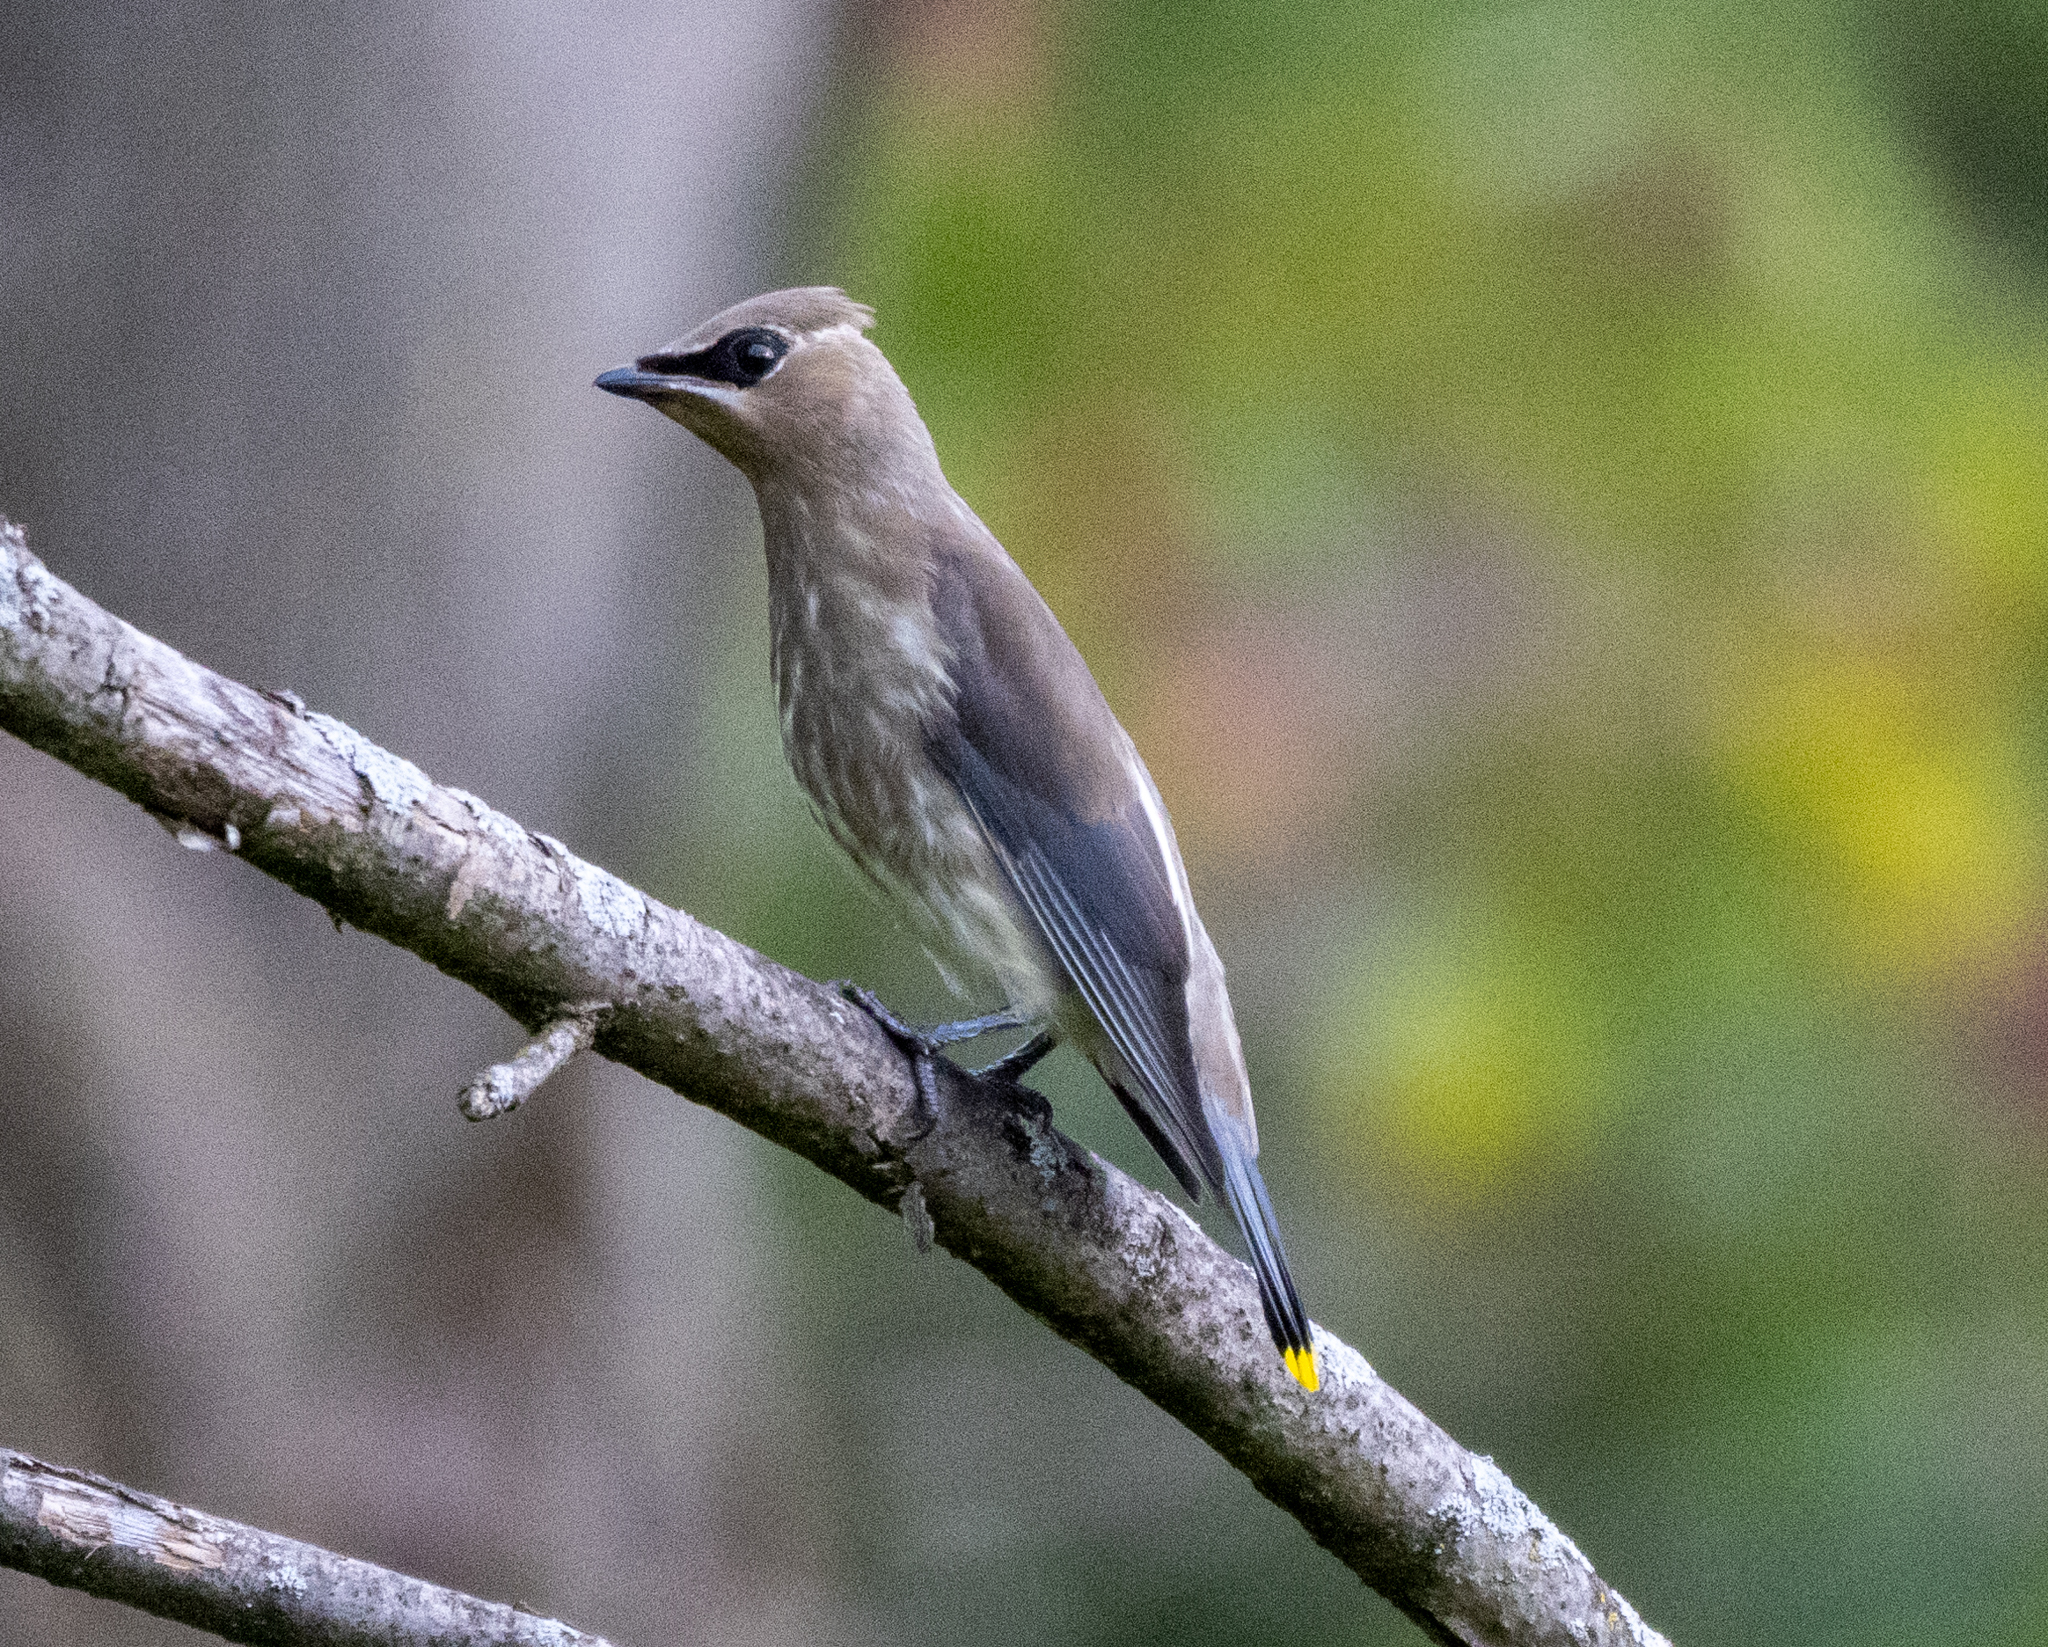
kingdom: Animalia
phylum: Chordata
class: Aves
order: Passeriformes
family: Bombycillidae
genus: Bombycilla
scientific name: Bombycilla cedrorum
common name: Cedar waxwing
